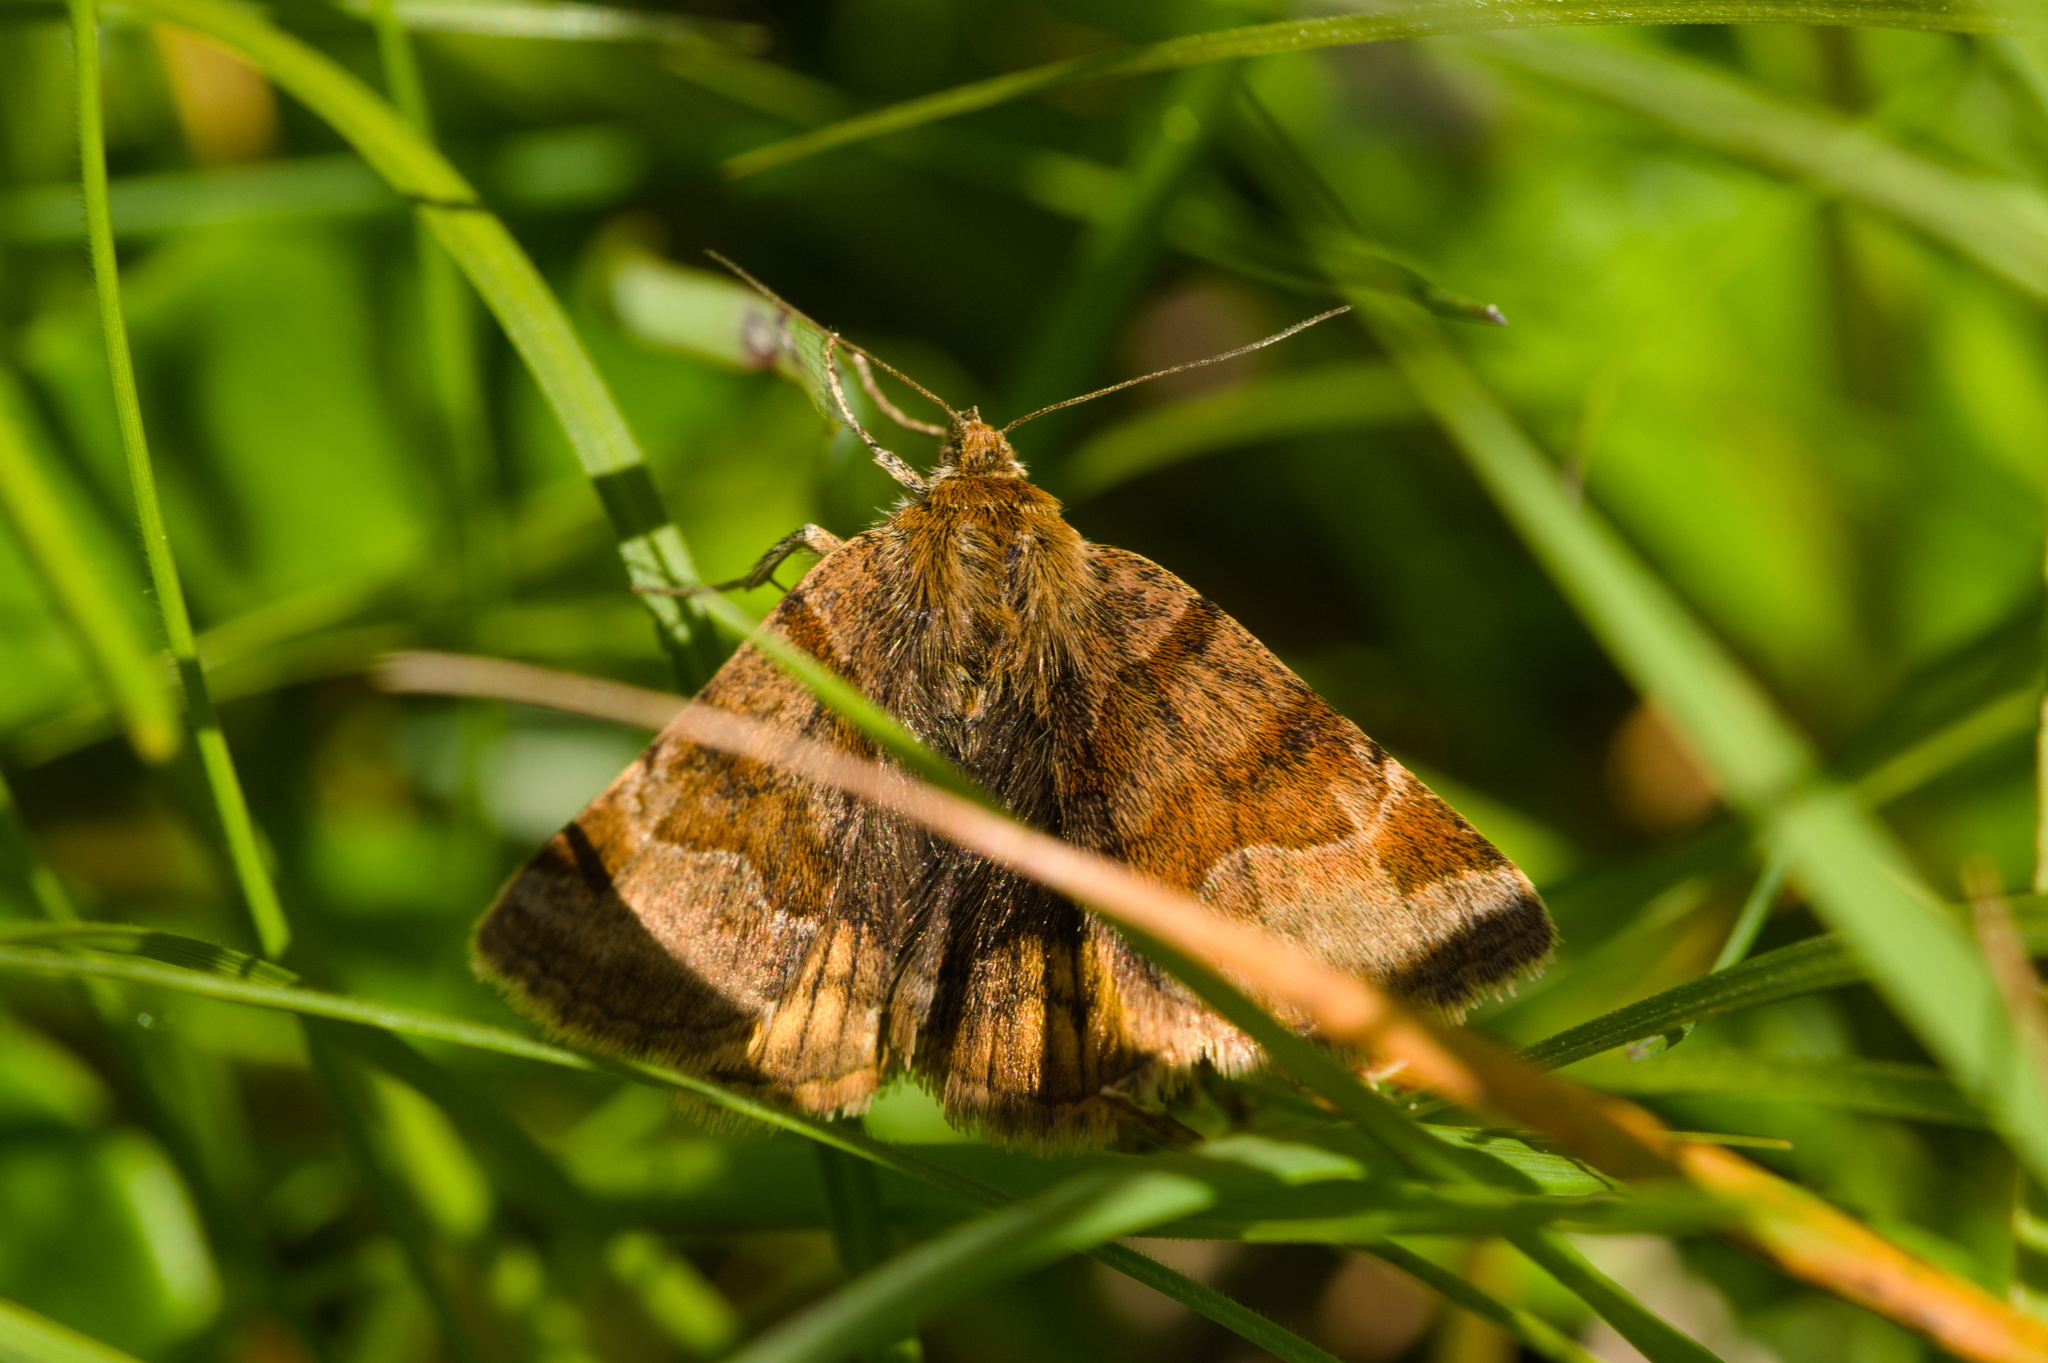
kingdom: Animalia
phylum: Arthropoda
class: Insecta
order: Lepidoptera
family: Erebidae
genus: Euclidia
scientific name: Euclidia glyphica
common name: Burnet companion
